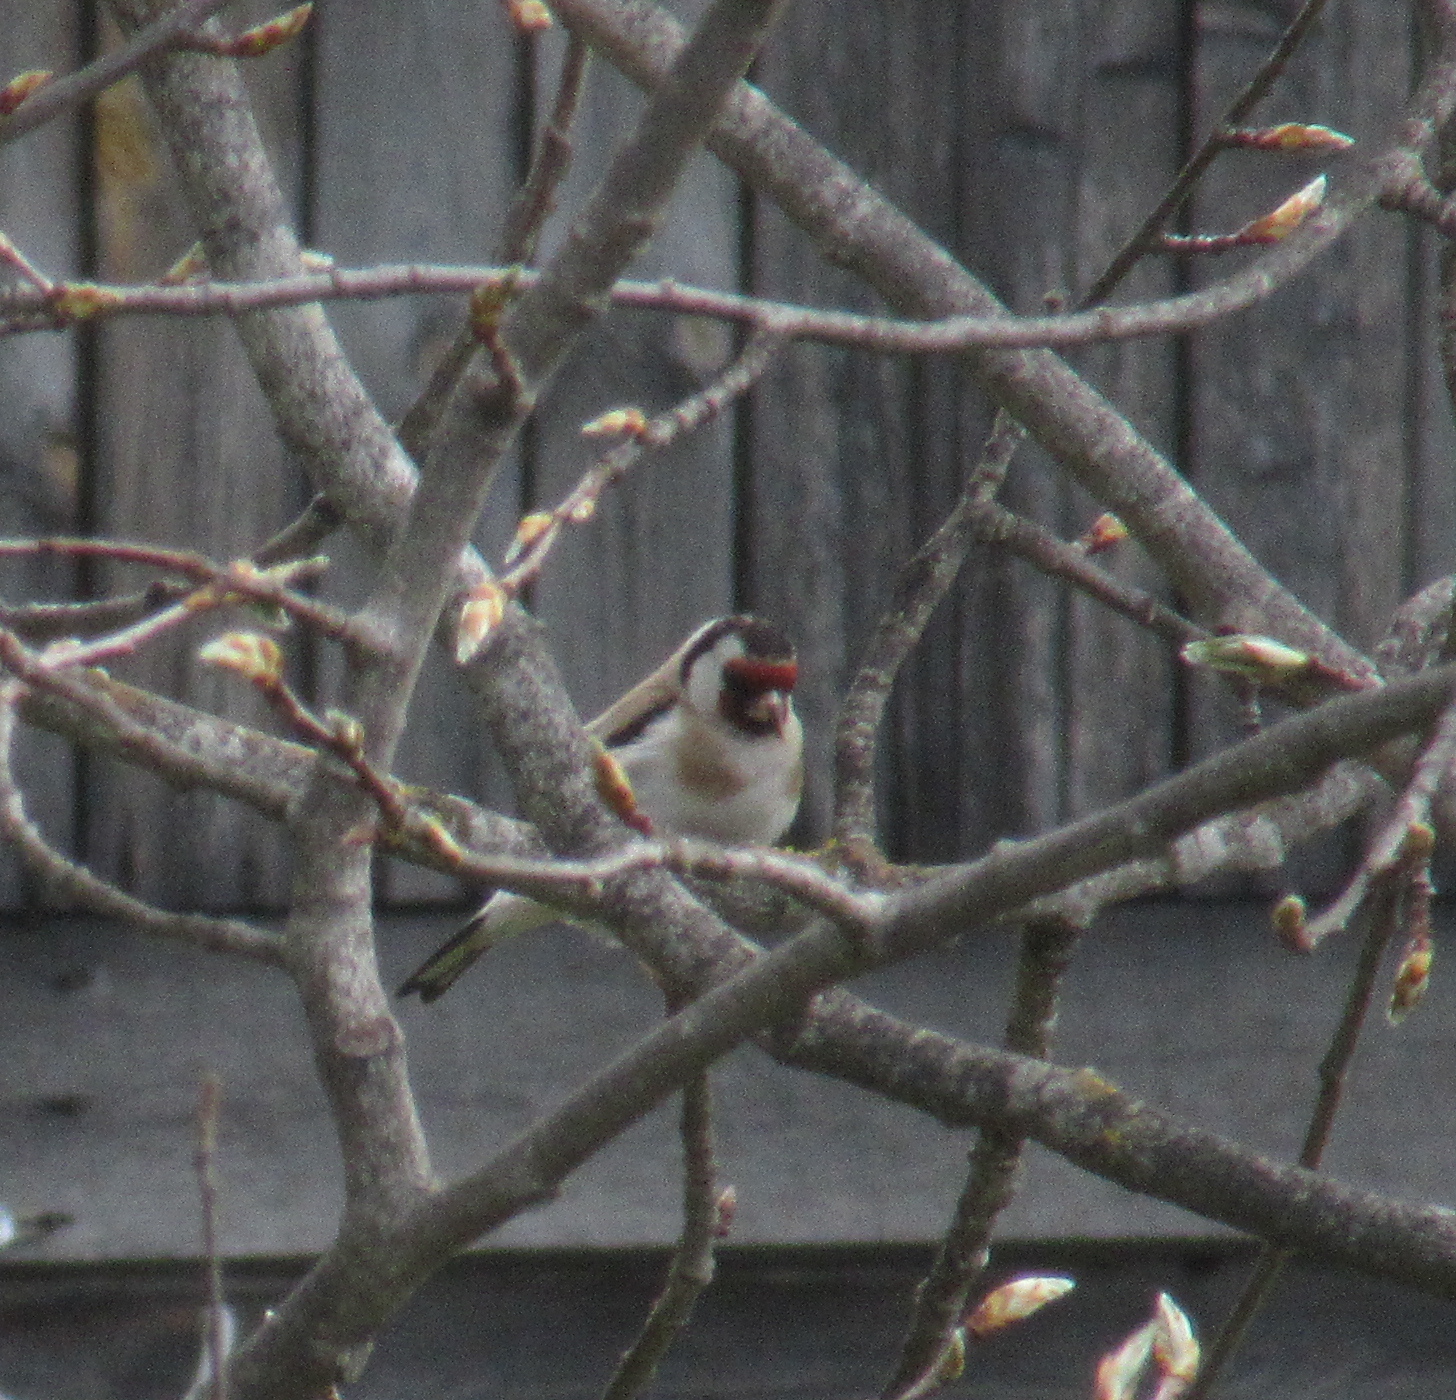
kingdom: Animalia
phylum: Chordata
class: Aves
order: Passeriformes
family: Fringillidae
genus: Carduelis
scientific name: Carduelis carduelis
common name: European goldfinch
